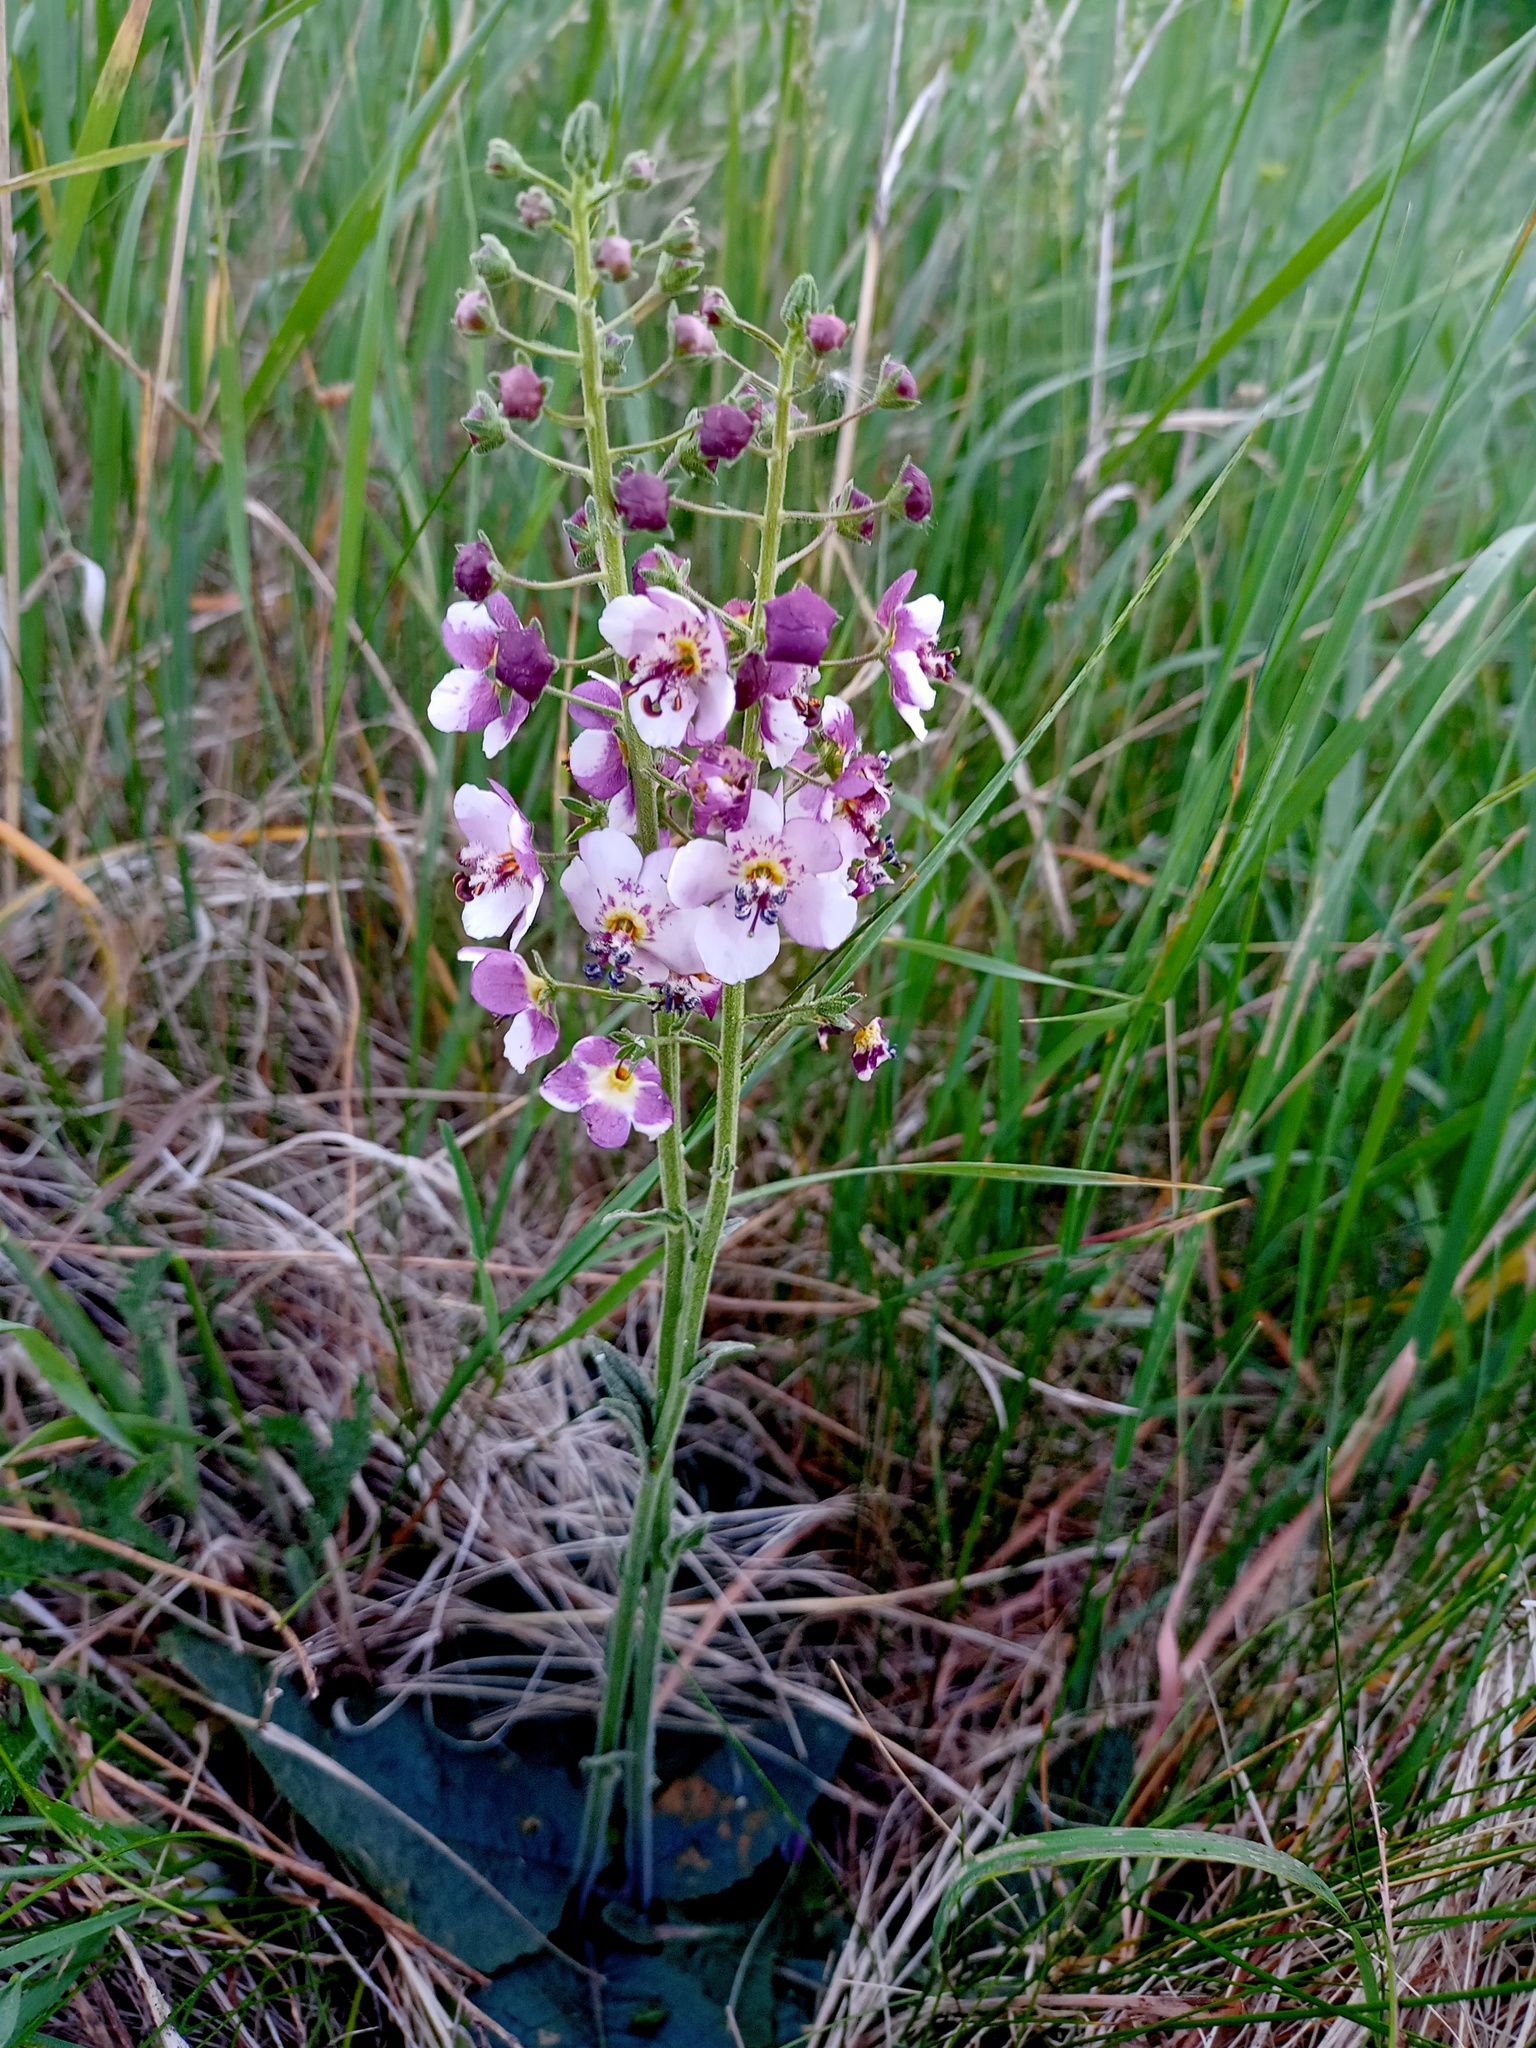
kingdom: Plantae
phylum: Tracheophyta
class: Magnoliopsida
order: Lamiales
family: Scrophulariaceae
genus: Verbascum
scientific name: Verbascum phoeniceum
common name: Purple mullein
